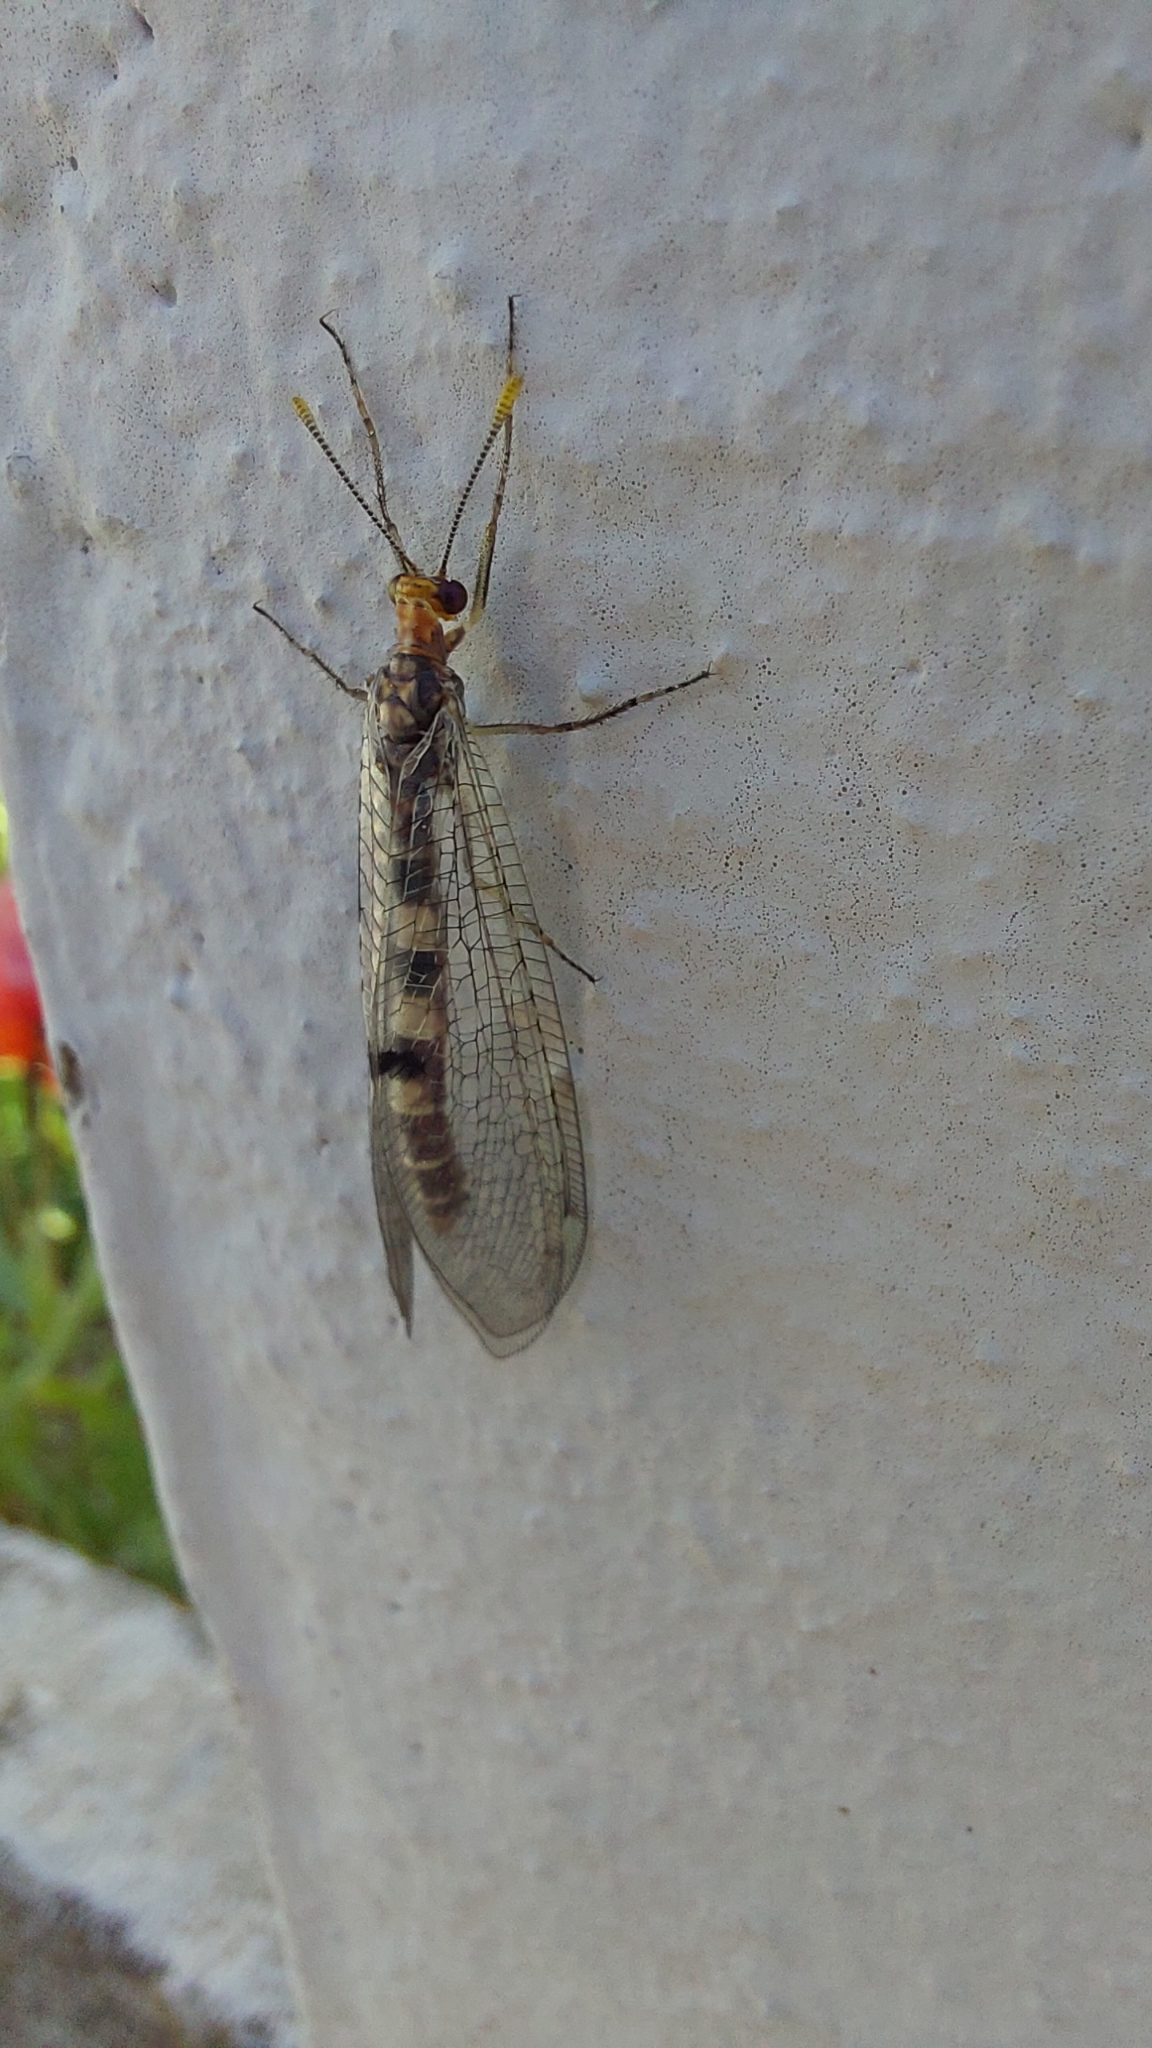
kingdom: Animalia
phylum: Arthropoda
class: Insecta
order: Neuroptera
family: Myrmeleontidae
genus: Megistopus
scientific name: Megistopus flavicornis
